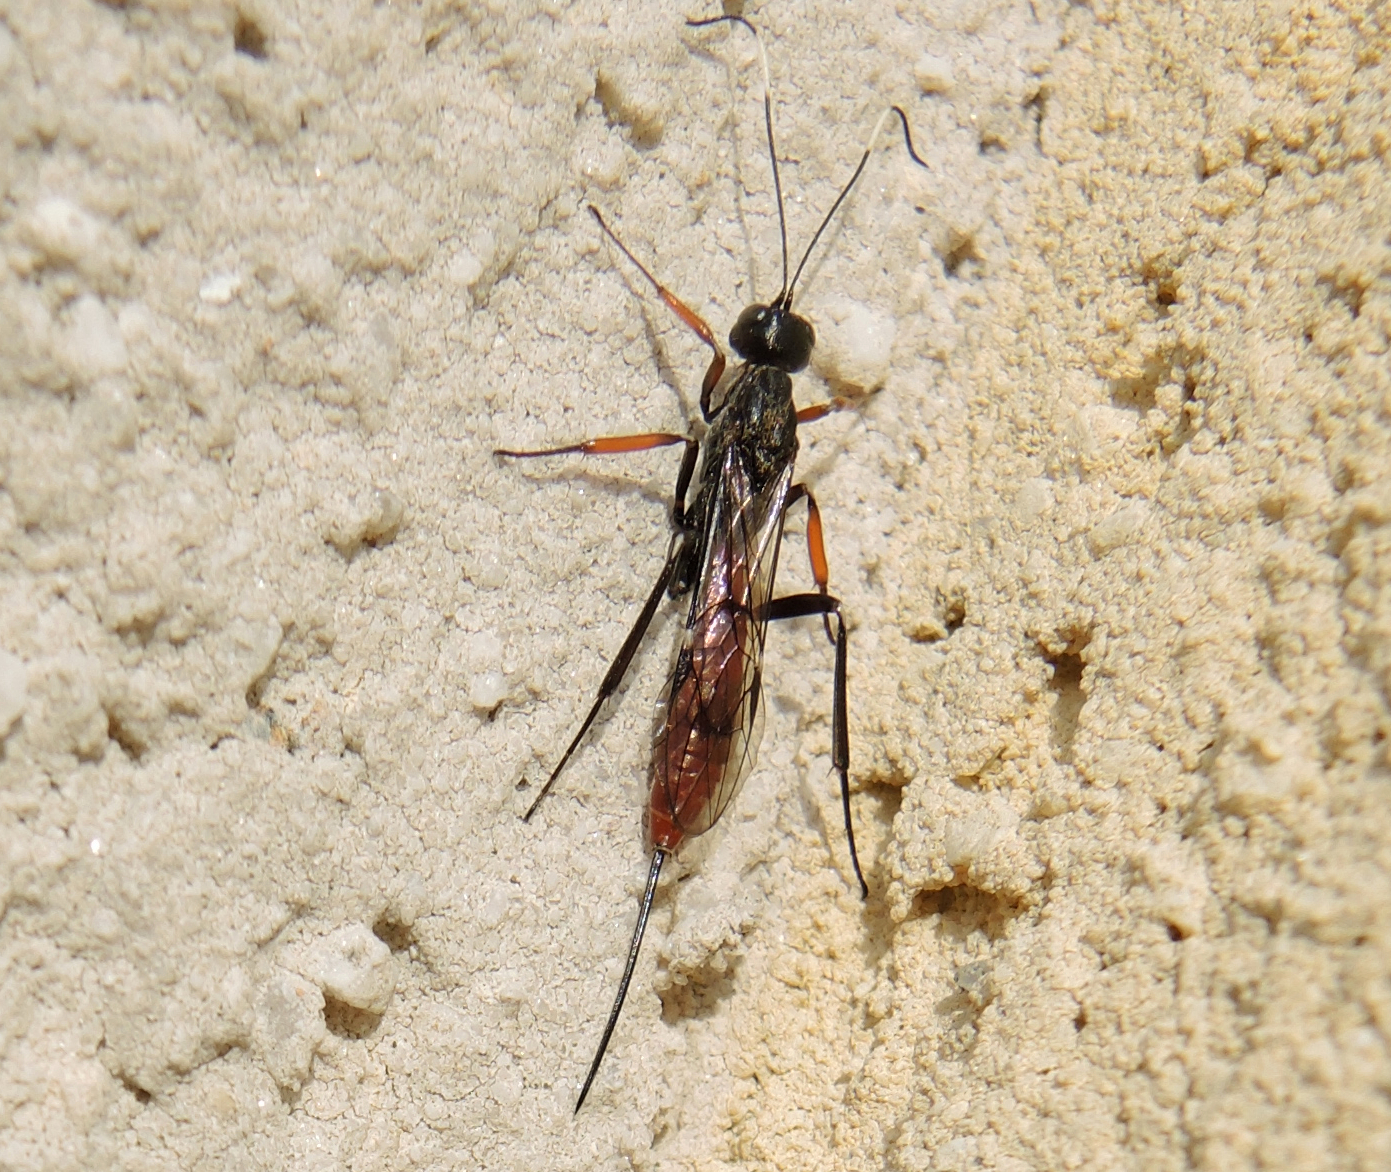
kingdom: Animalia
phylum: Arthropoda
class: Insecta
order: Hymenoptera
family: Ichneumonidae
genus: Xorides
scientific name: Xorides filiformis
